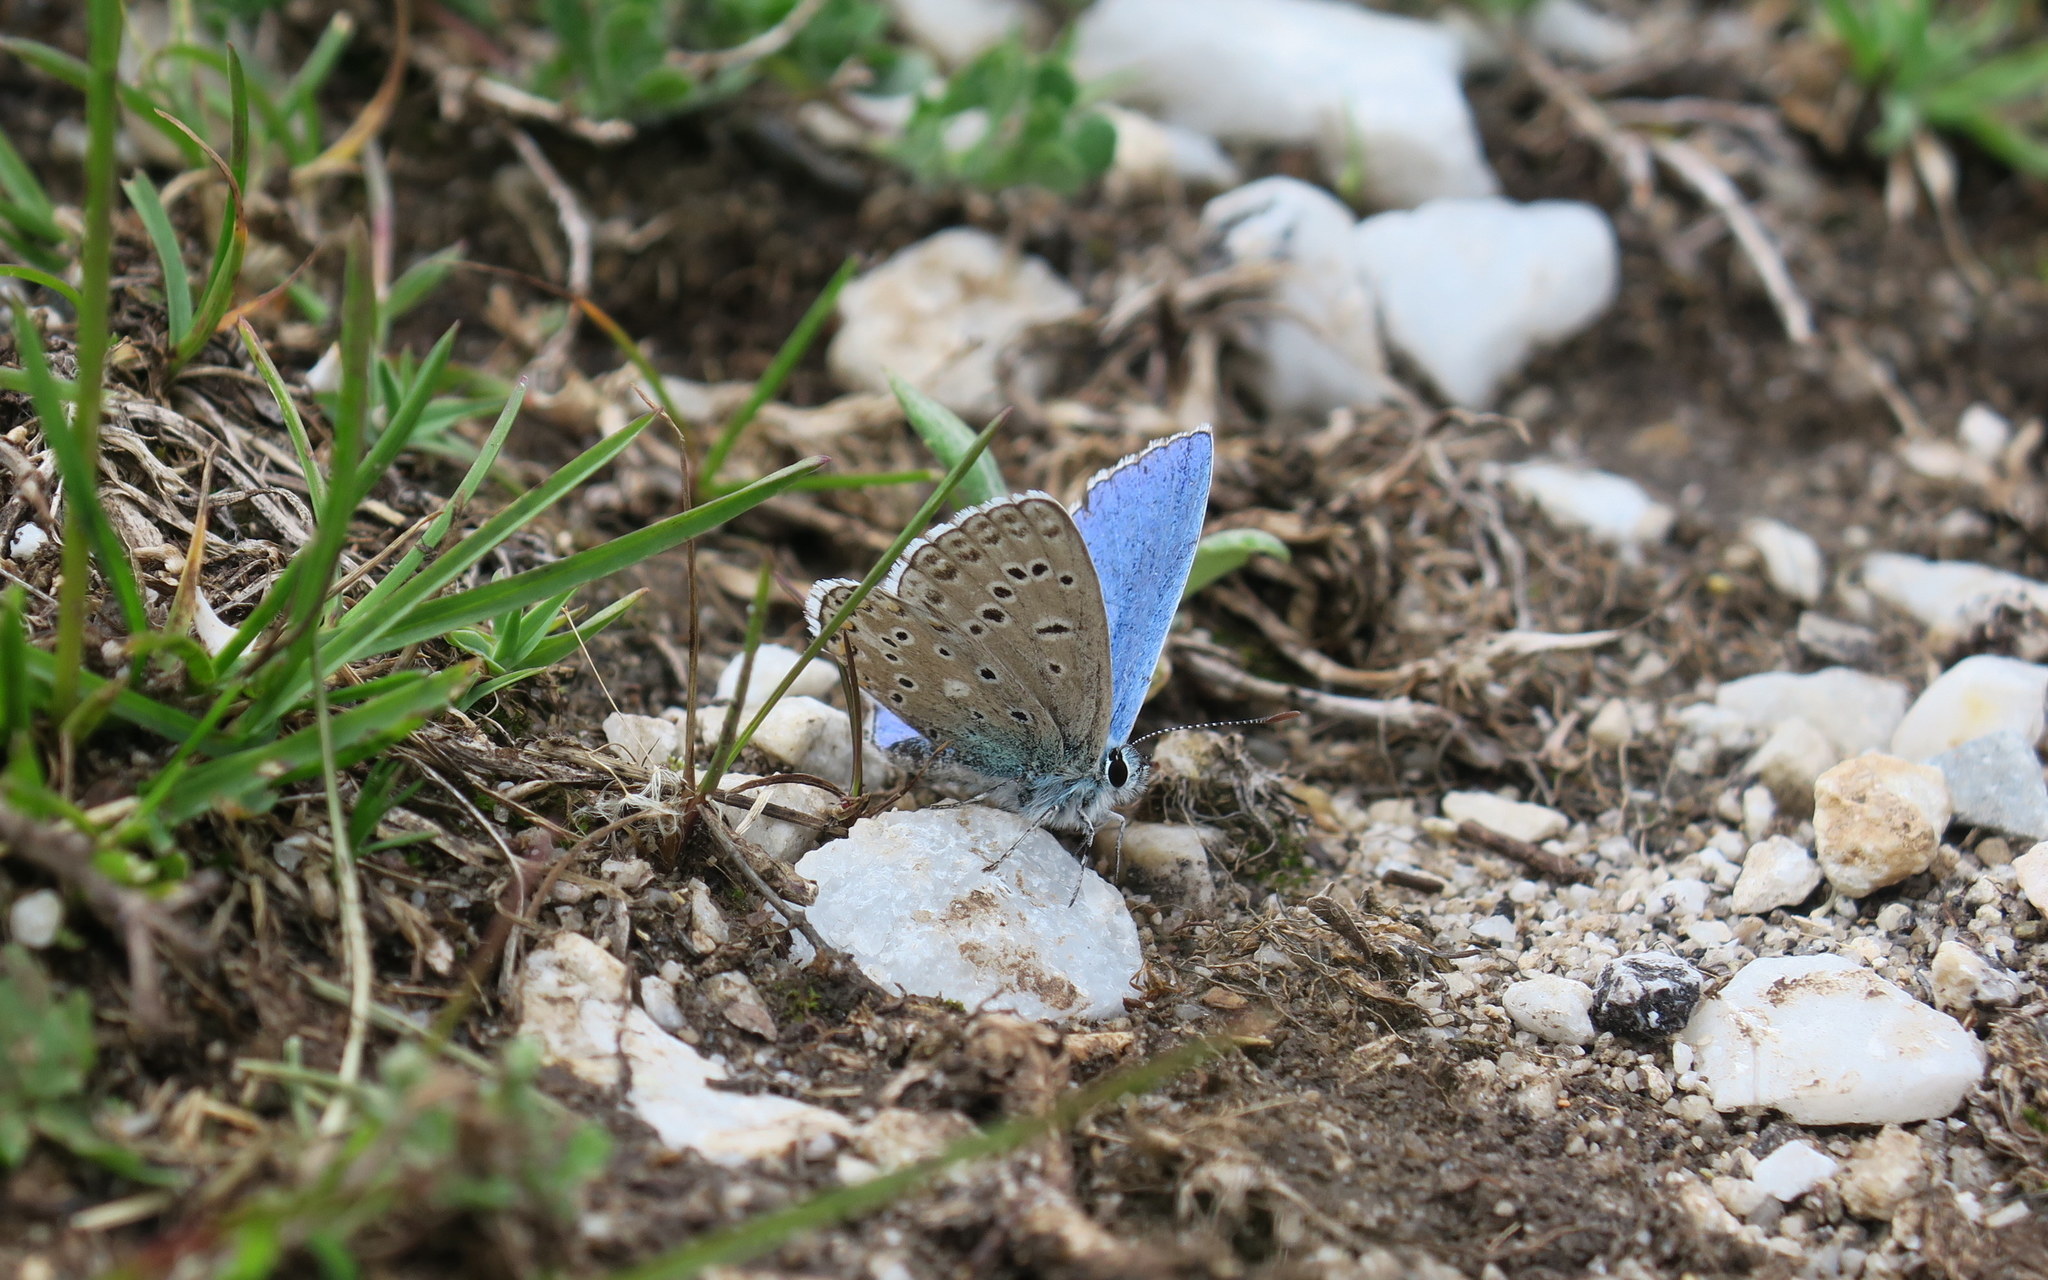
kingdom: Animalia
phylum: Arthropoda
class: Insecta
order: Lepidoptera
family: Lycaenidae
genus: Lysandra
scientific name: Lysandra bellargus
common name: Adonis blue
